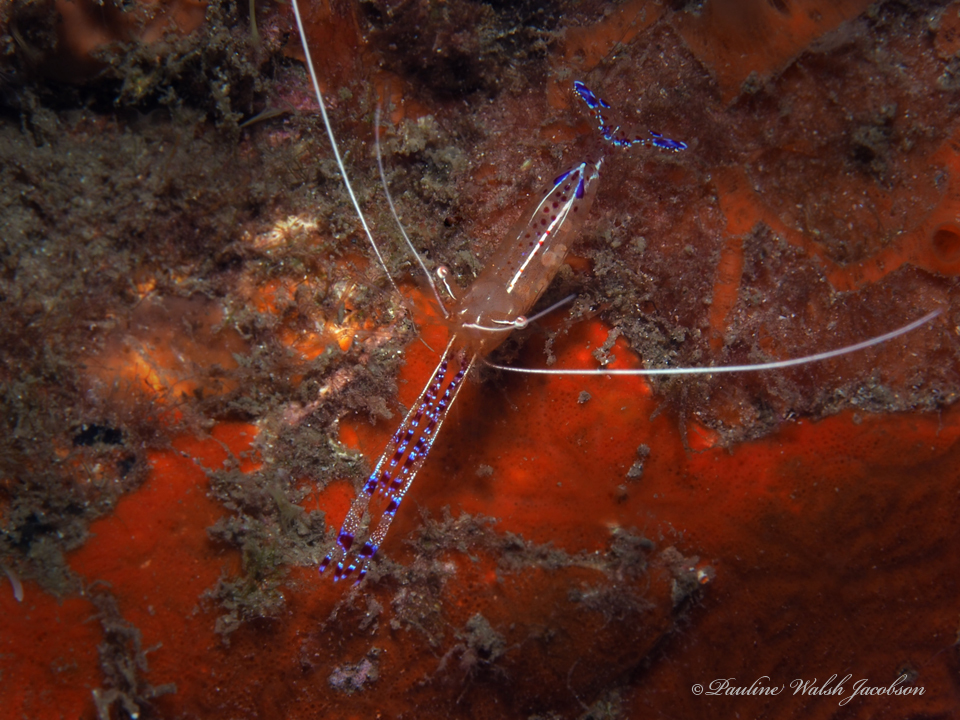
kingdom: Animalia
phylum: Arthropoda
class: Malacostraca
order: Decapoda
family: Palaemonidae
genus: Ancylomenes
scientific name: Ancylomenes pedersoni
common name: Pederson's cleaning shrimp
